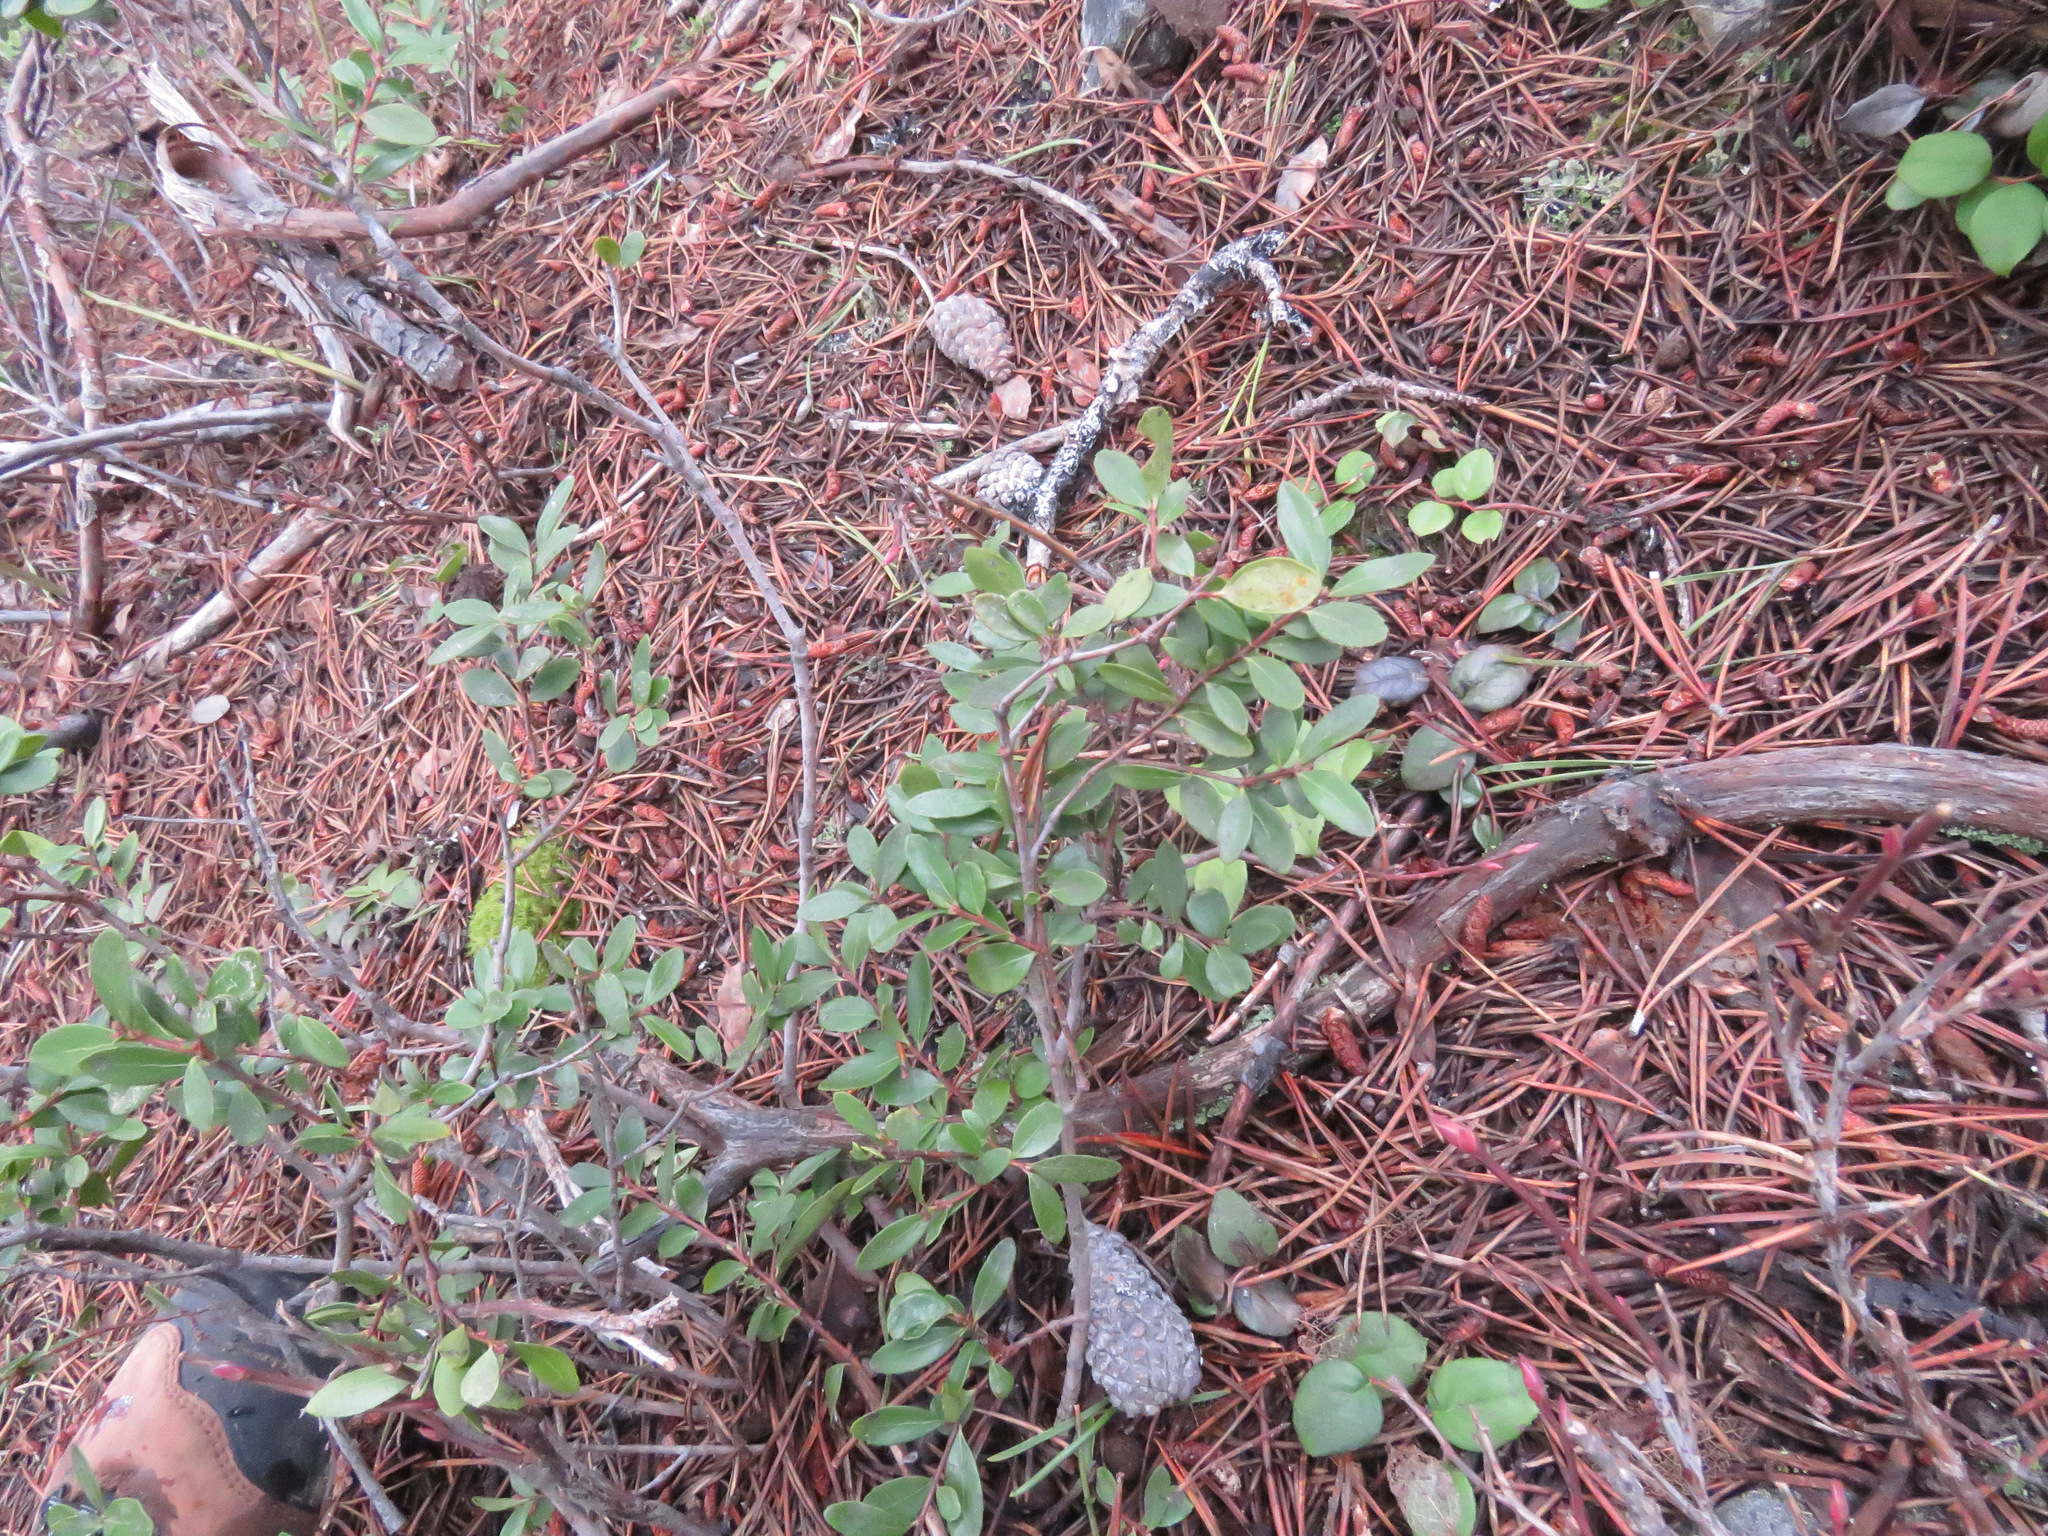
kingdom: Plantae
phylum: Tracheophyta
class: Magnoliopsida
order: Celastrales
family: Celastraceae
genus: Paxistima
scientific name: Paxistima myrsinites
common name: Mountain-lover
